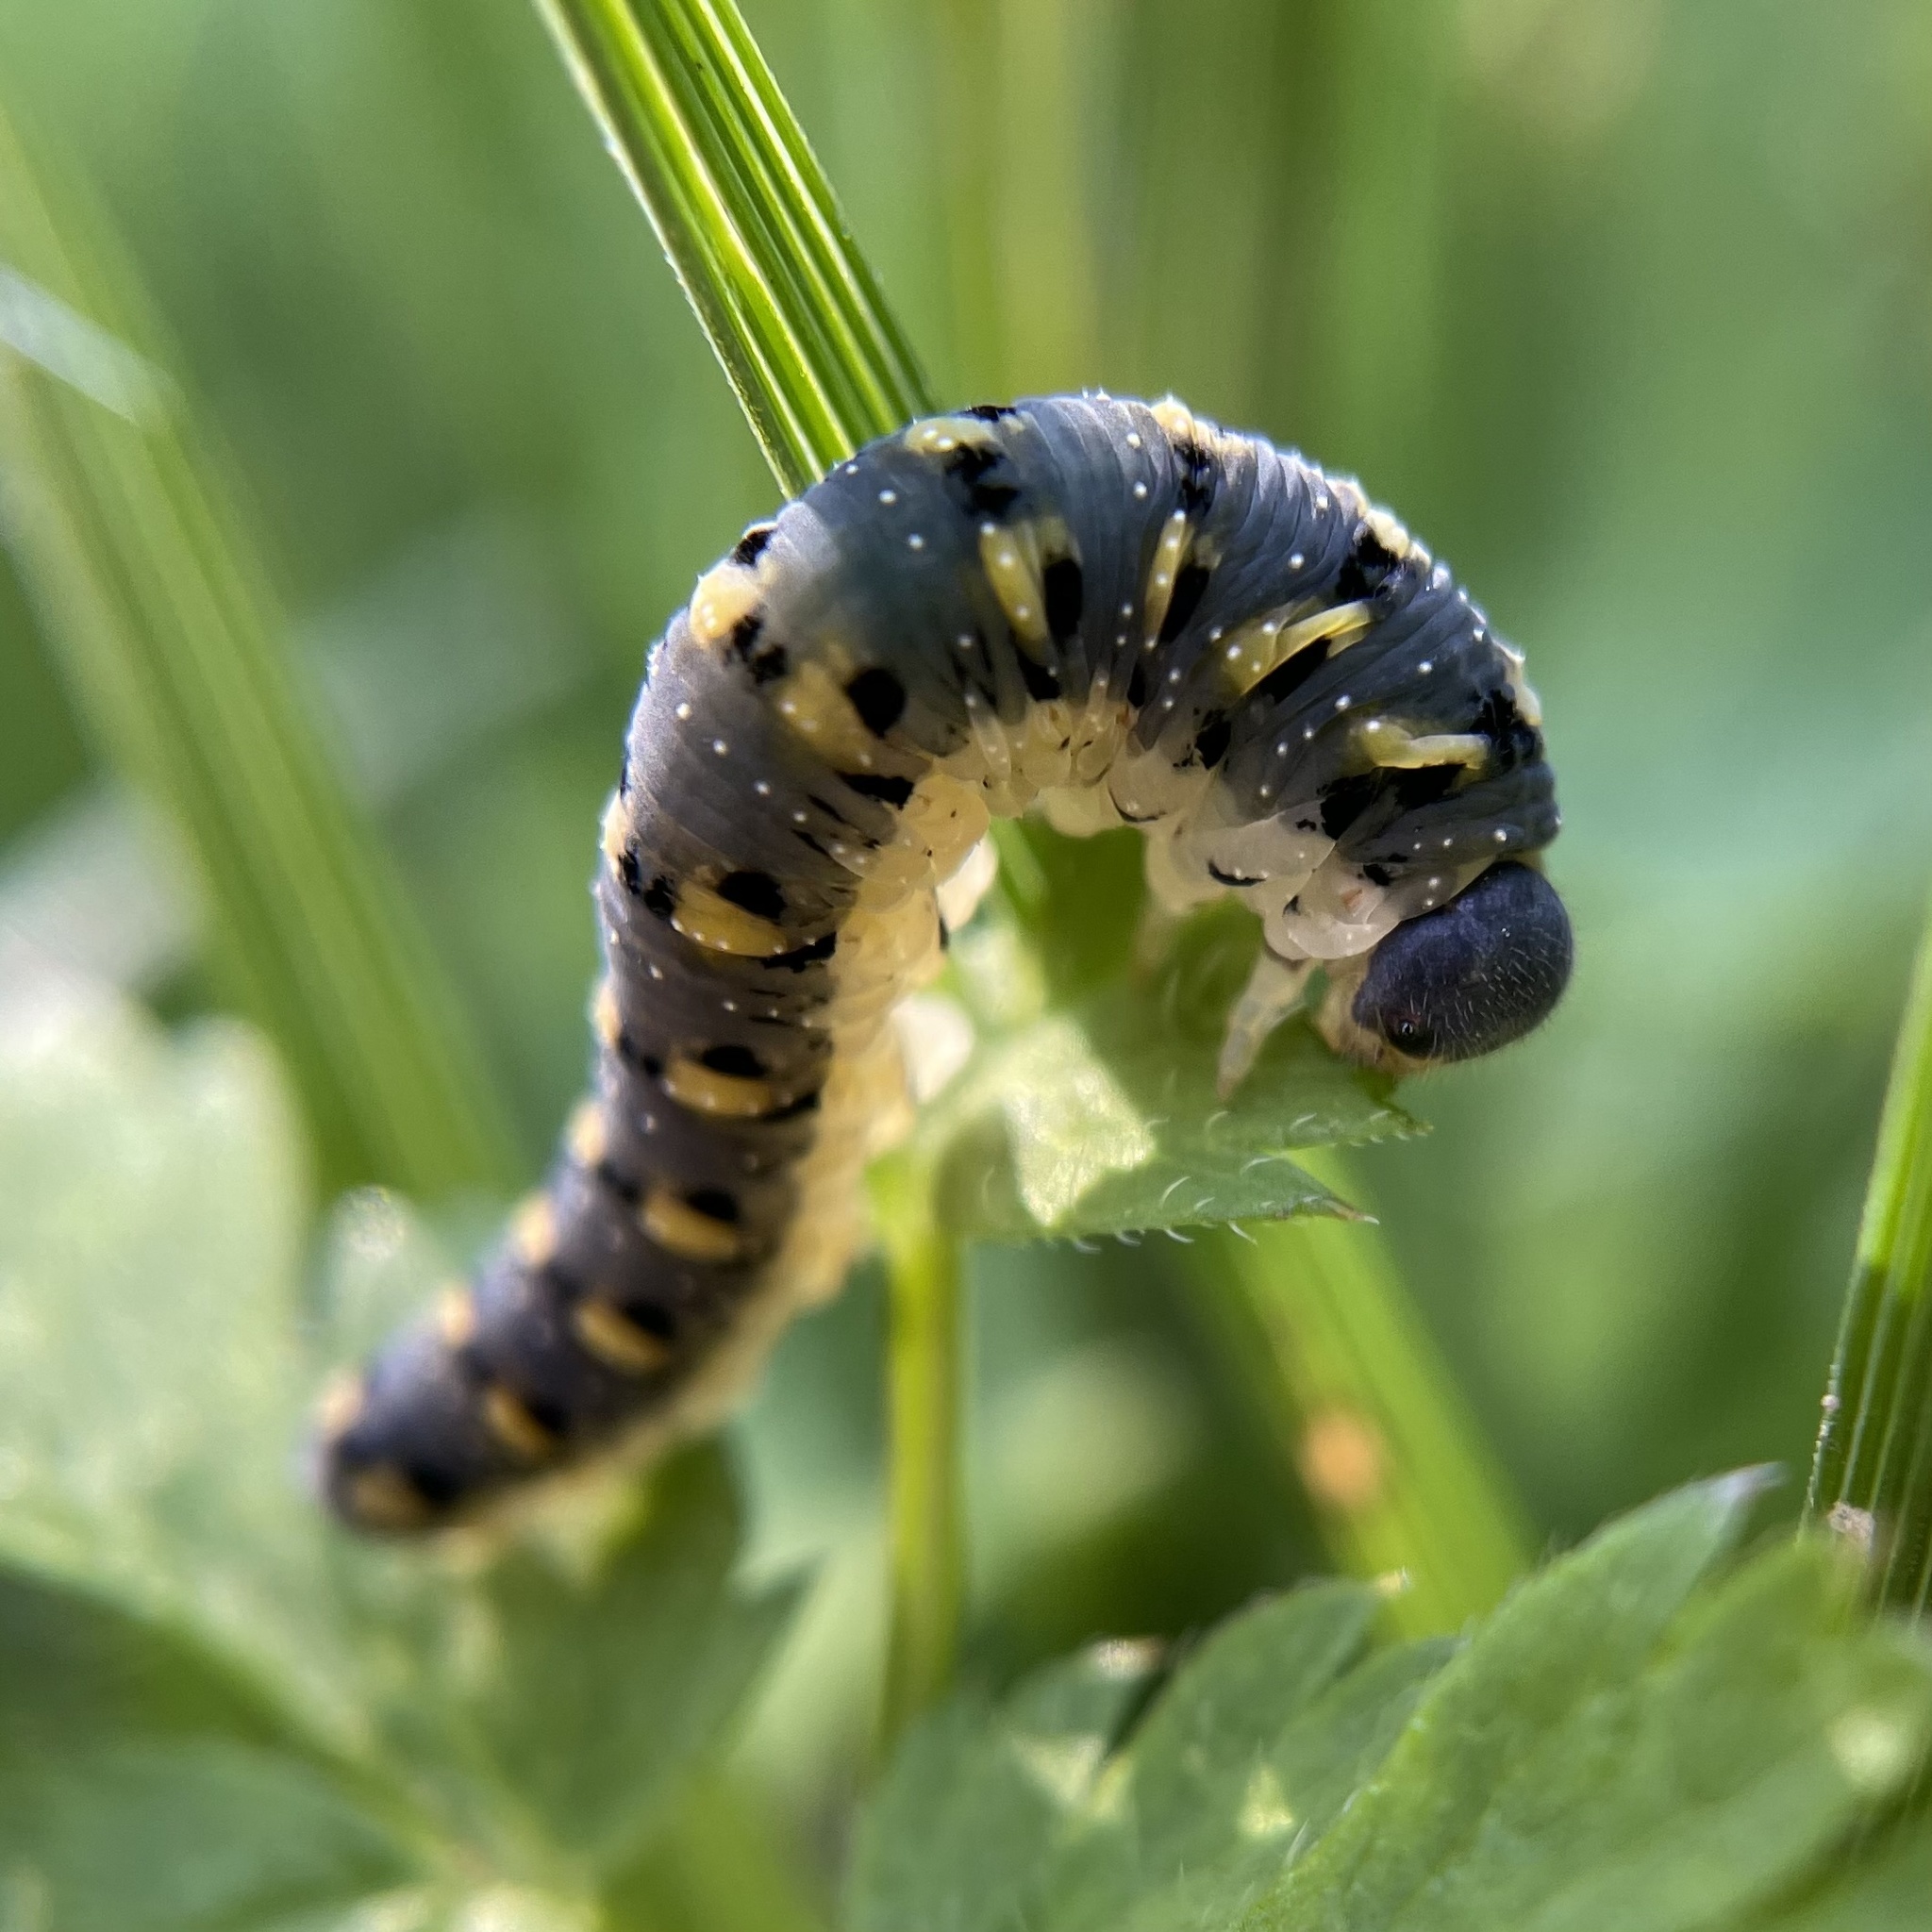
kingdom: Animalia
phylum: Arthropoda
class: Insecta
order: Hymenoptera
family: Tenthredinidae
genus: Tenthredo
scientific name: Tenthredo crassa
